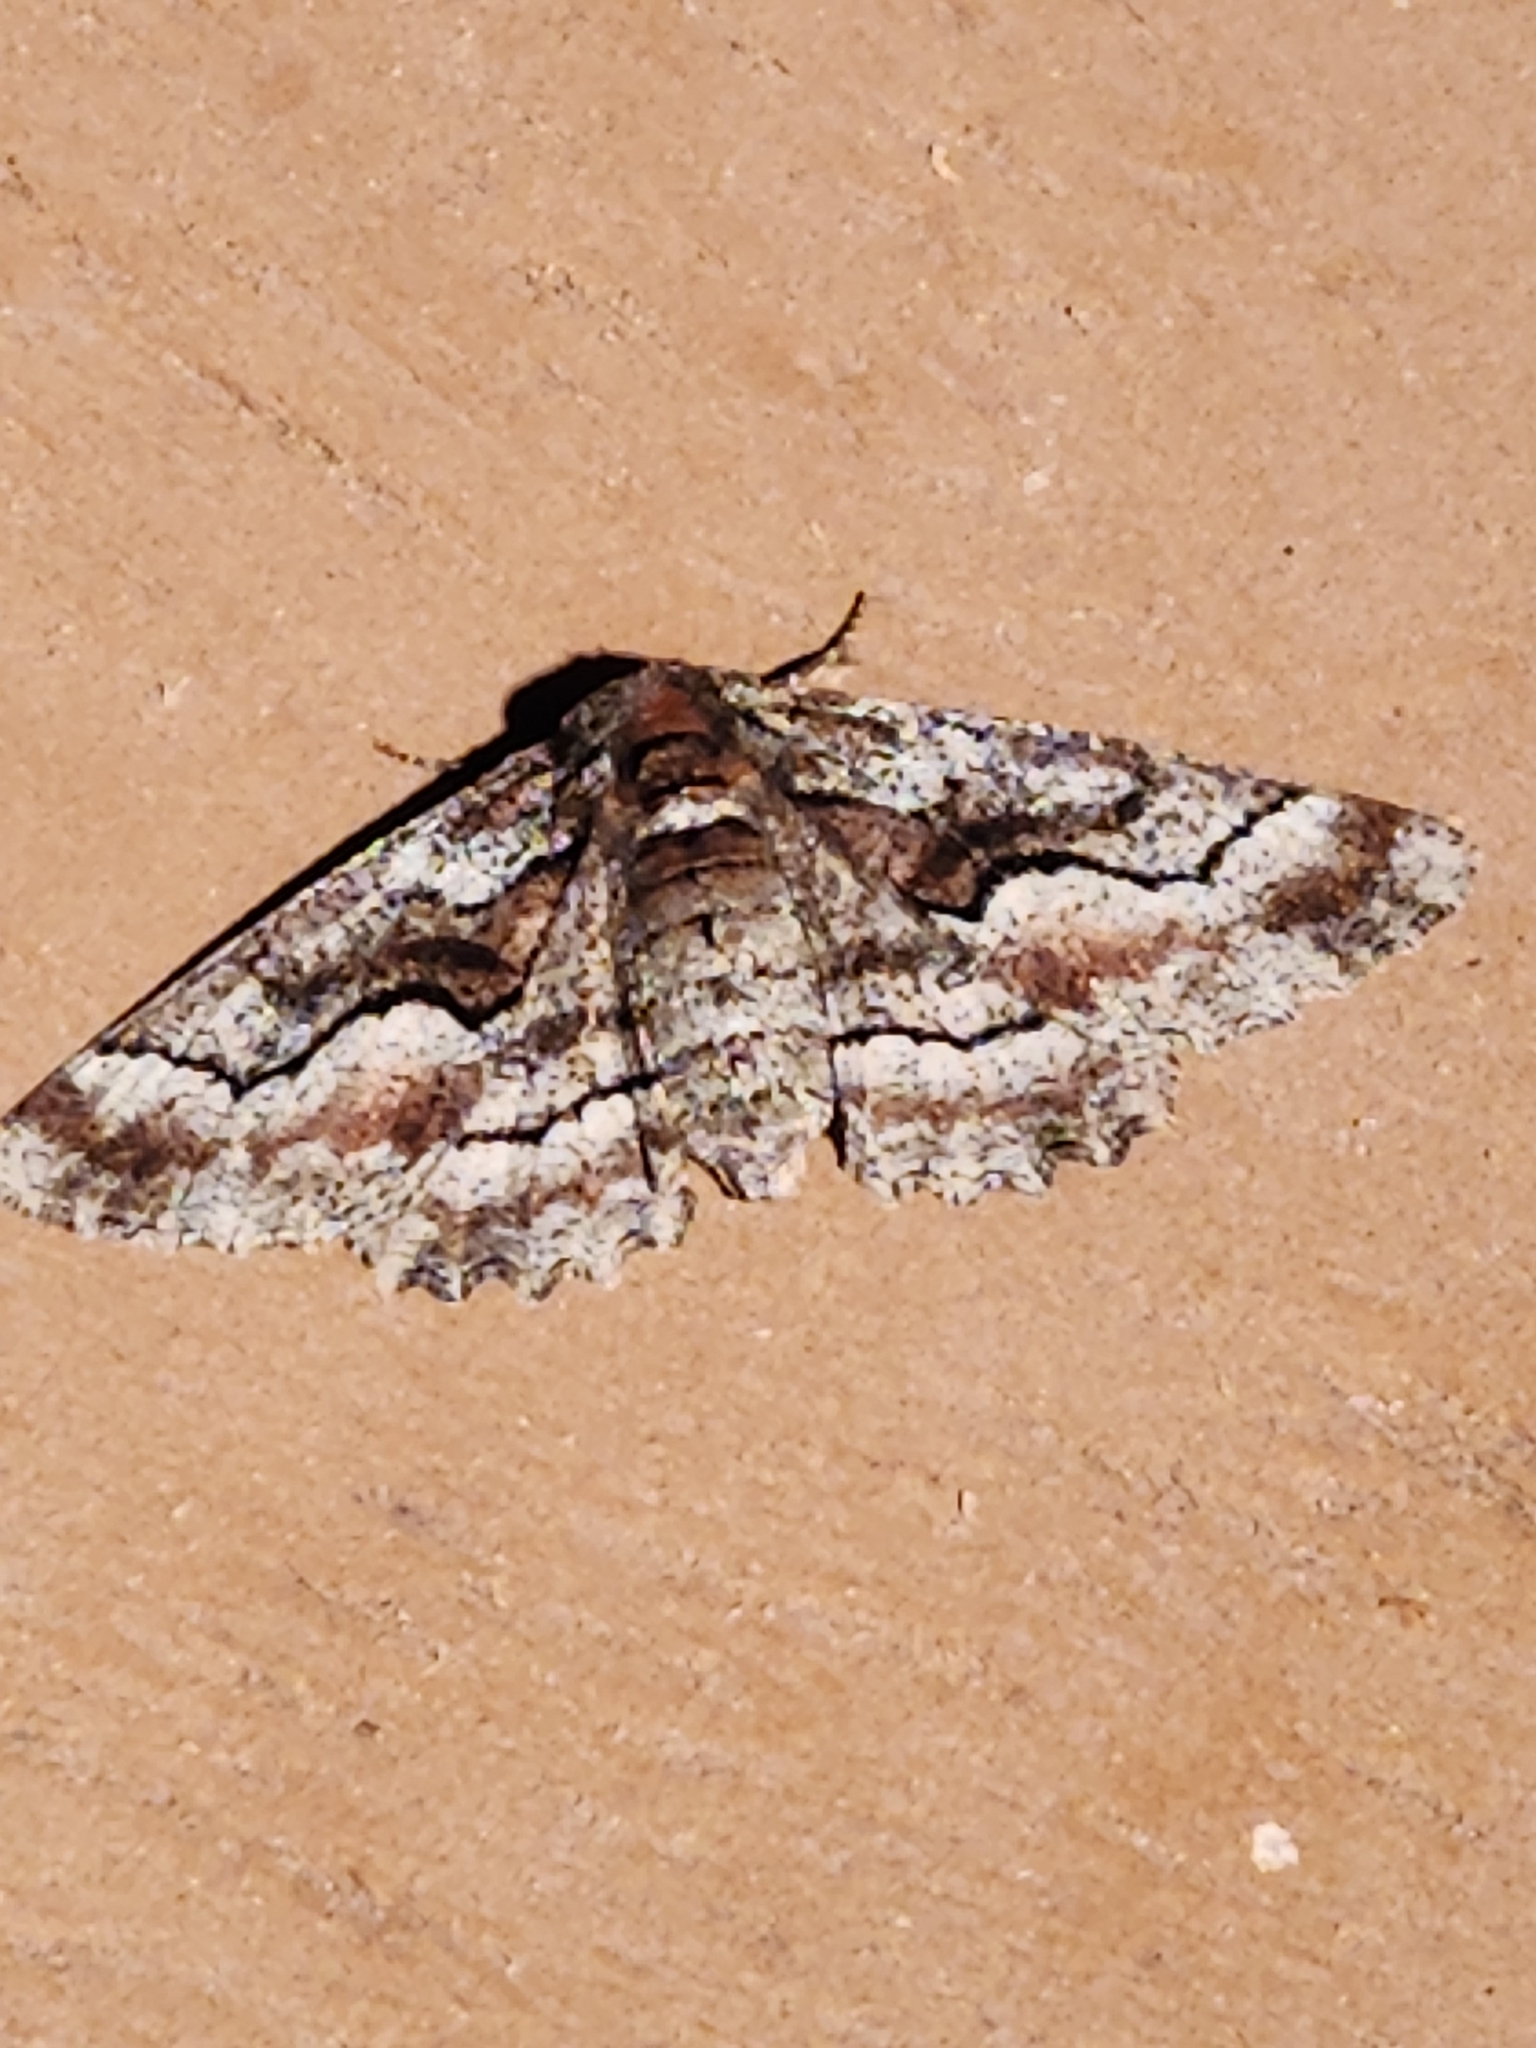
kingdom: Animalia
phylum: Arthropoda
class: Insecta
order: Lepidoptera
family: Geometridae
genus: Phaeoura
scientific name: Phaeoura quernaria
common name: Oak beauty
